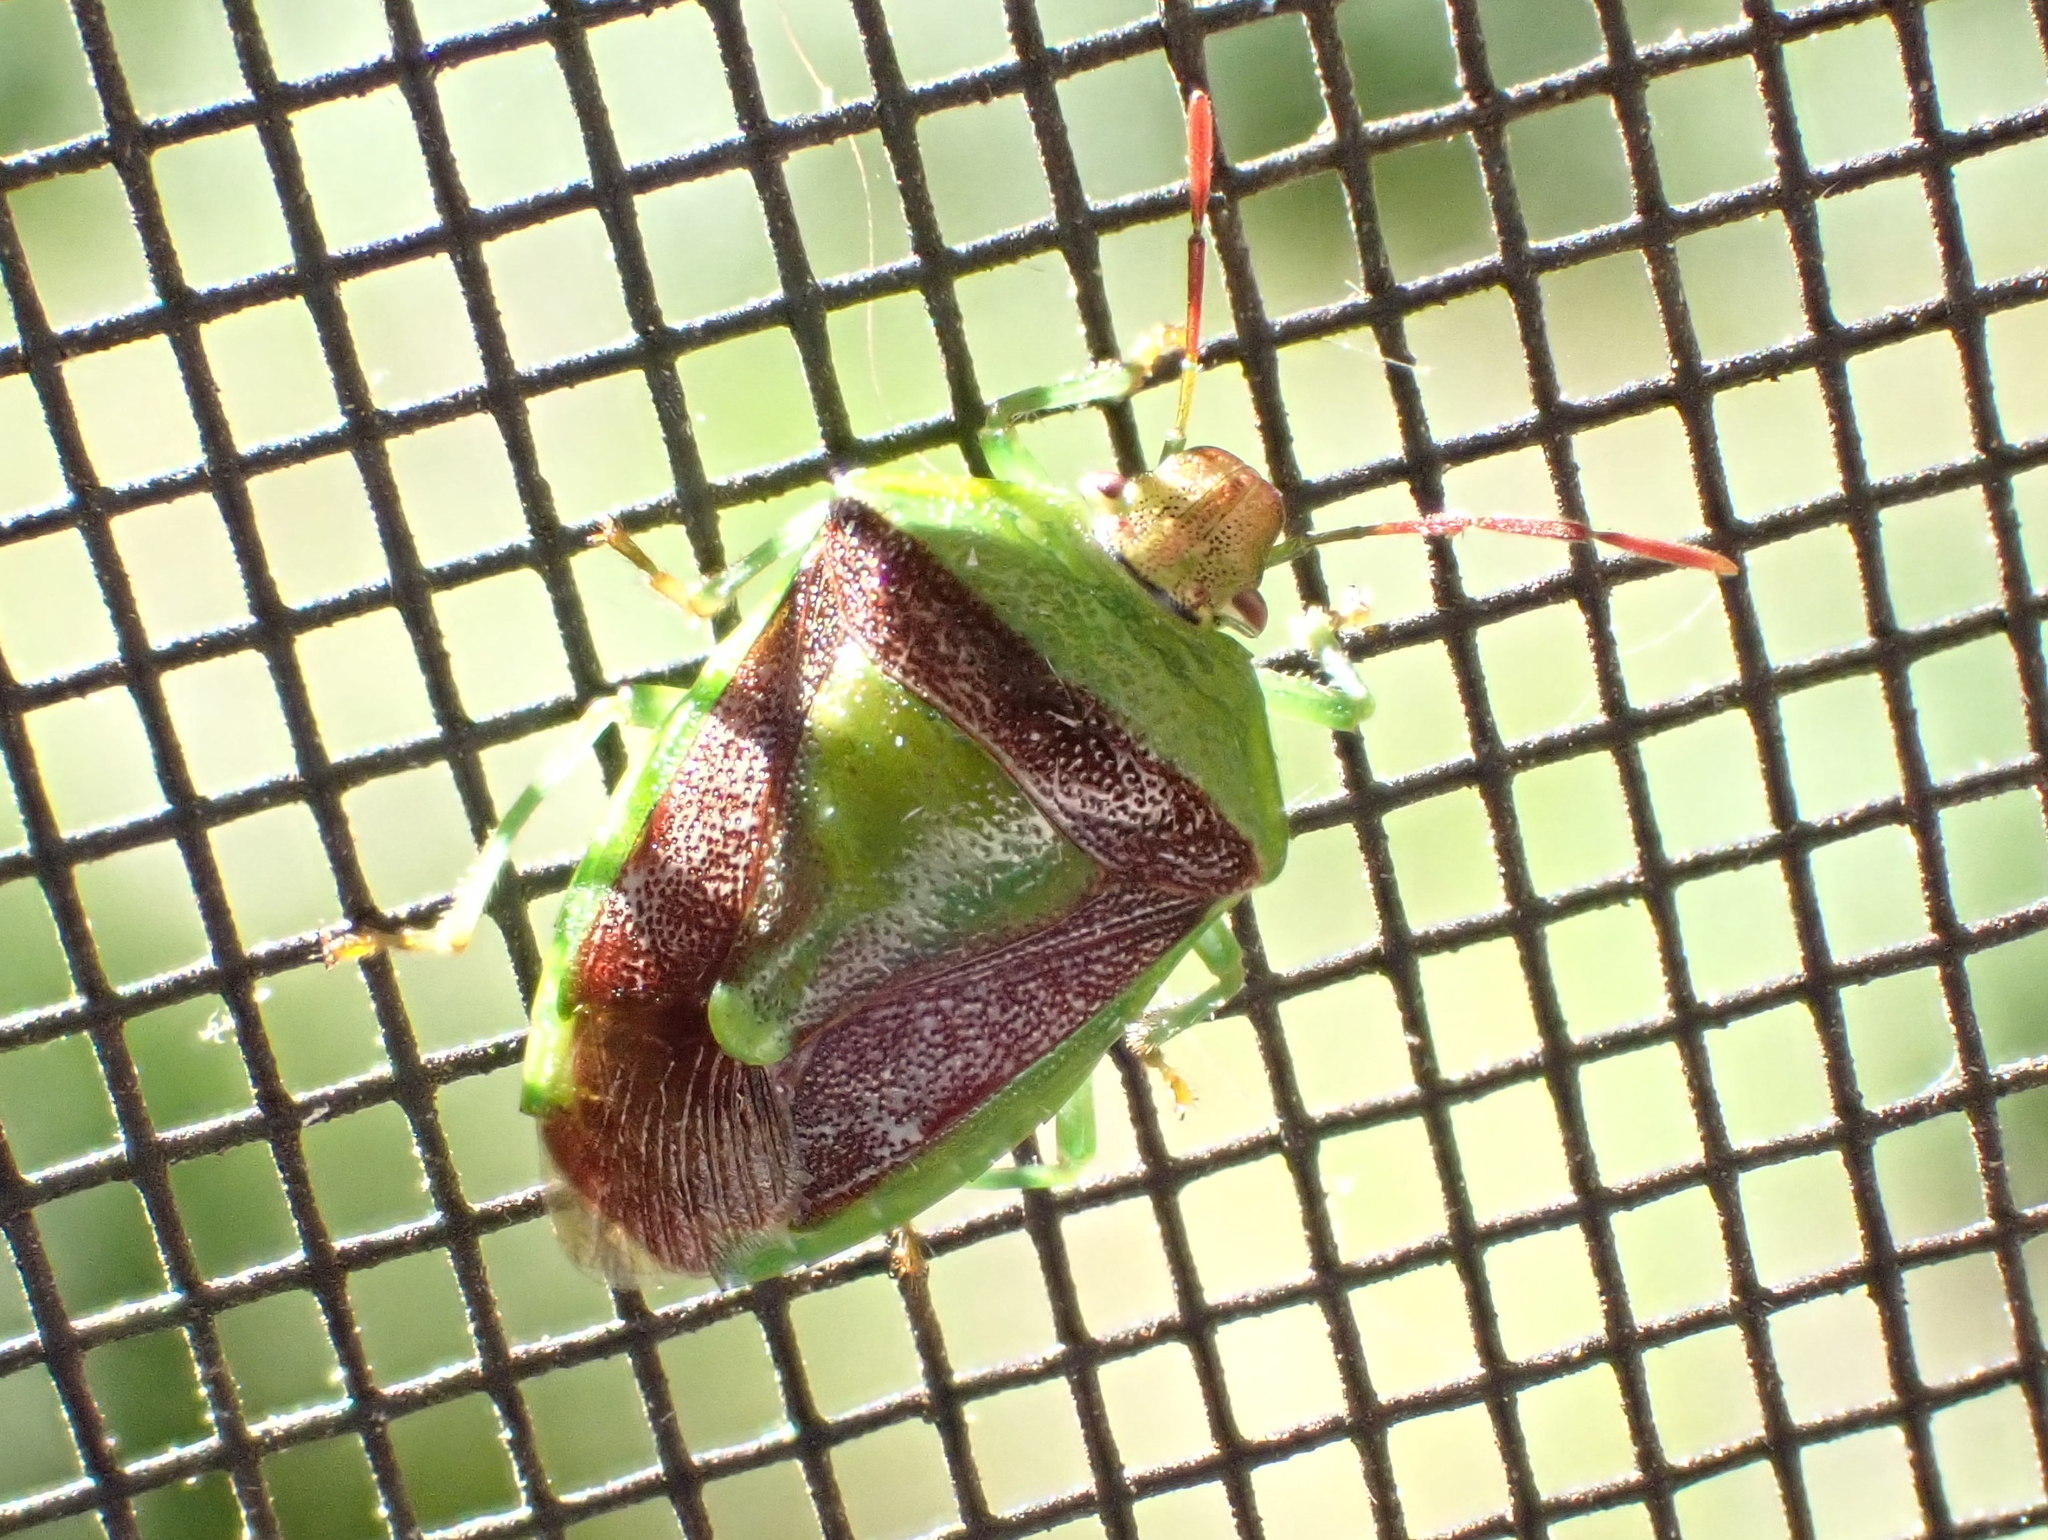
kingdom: Animalia
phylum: Arthropoda
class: Insecta
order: Hemiptera
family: Pentatomidae
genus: Banasa
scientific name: Banasa dimidiata
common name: Green burgundy stink bug
